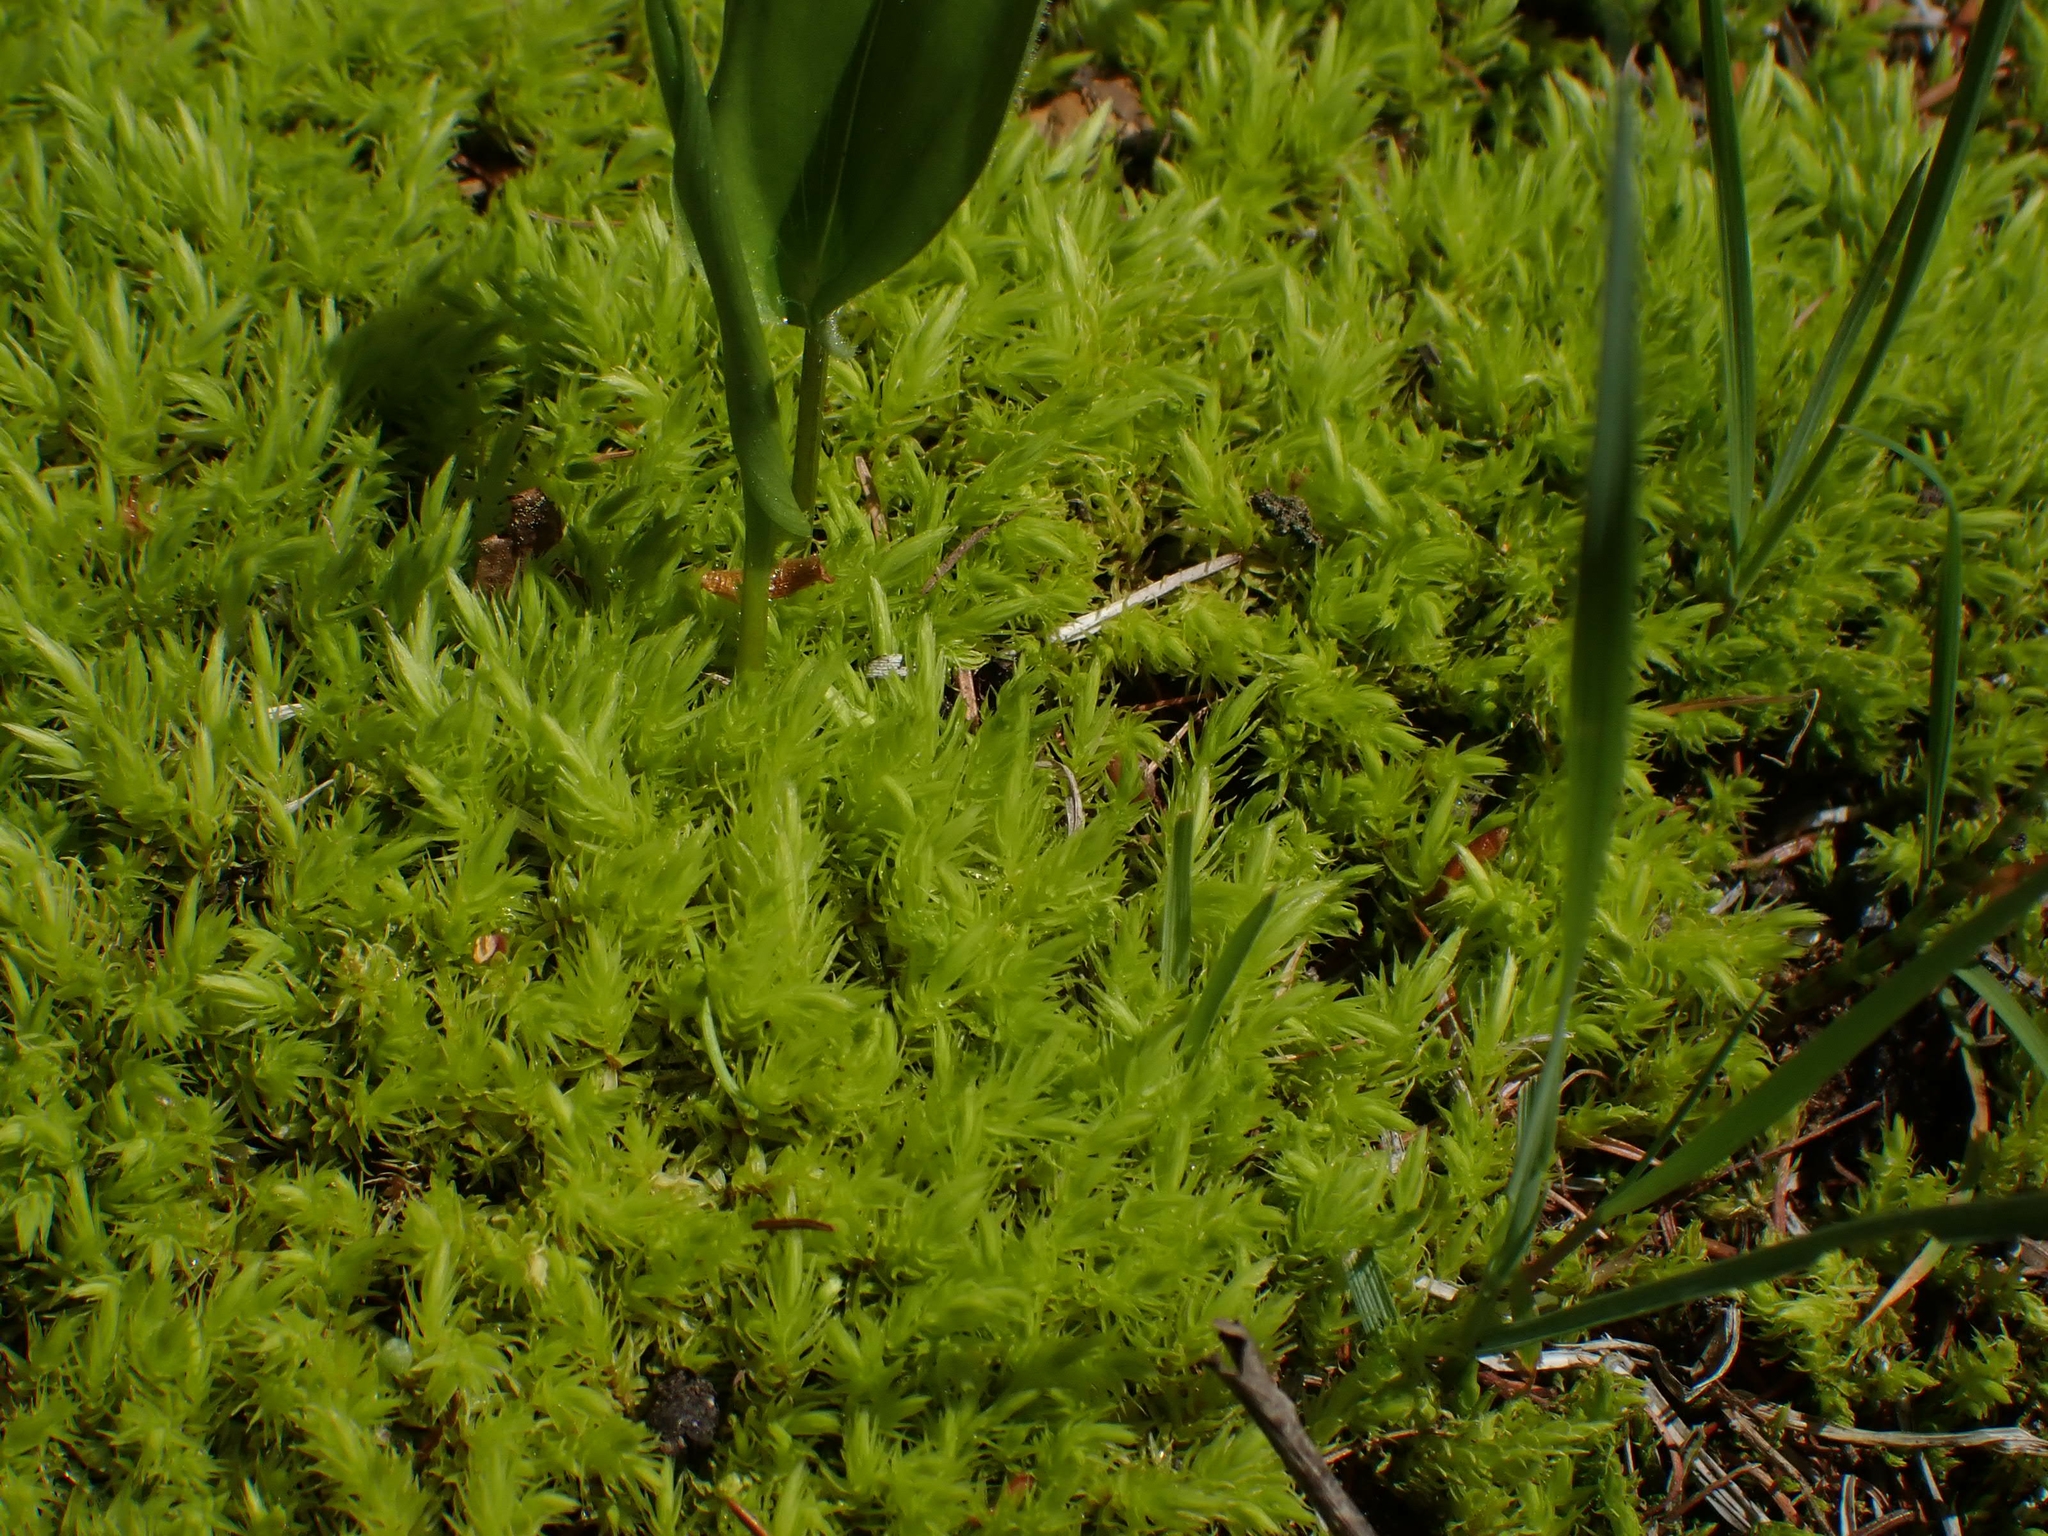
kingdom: Plantae
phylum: Bryophyta
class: Bryopsida
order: Aulacomniales
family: Aulacomniaceae
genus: Aulacomnium
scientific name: Aulacomnium palustre
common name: Bog groove-moss
